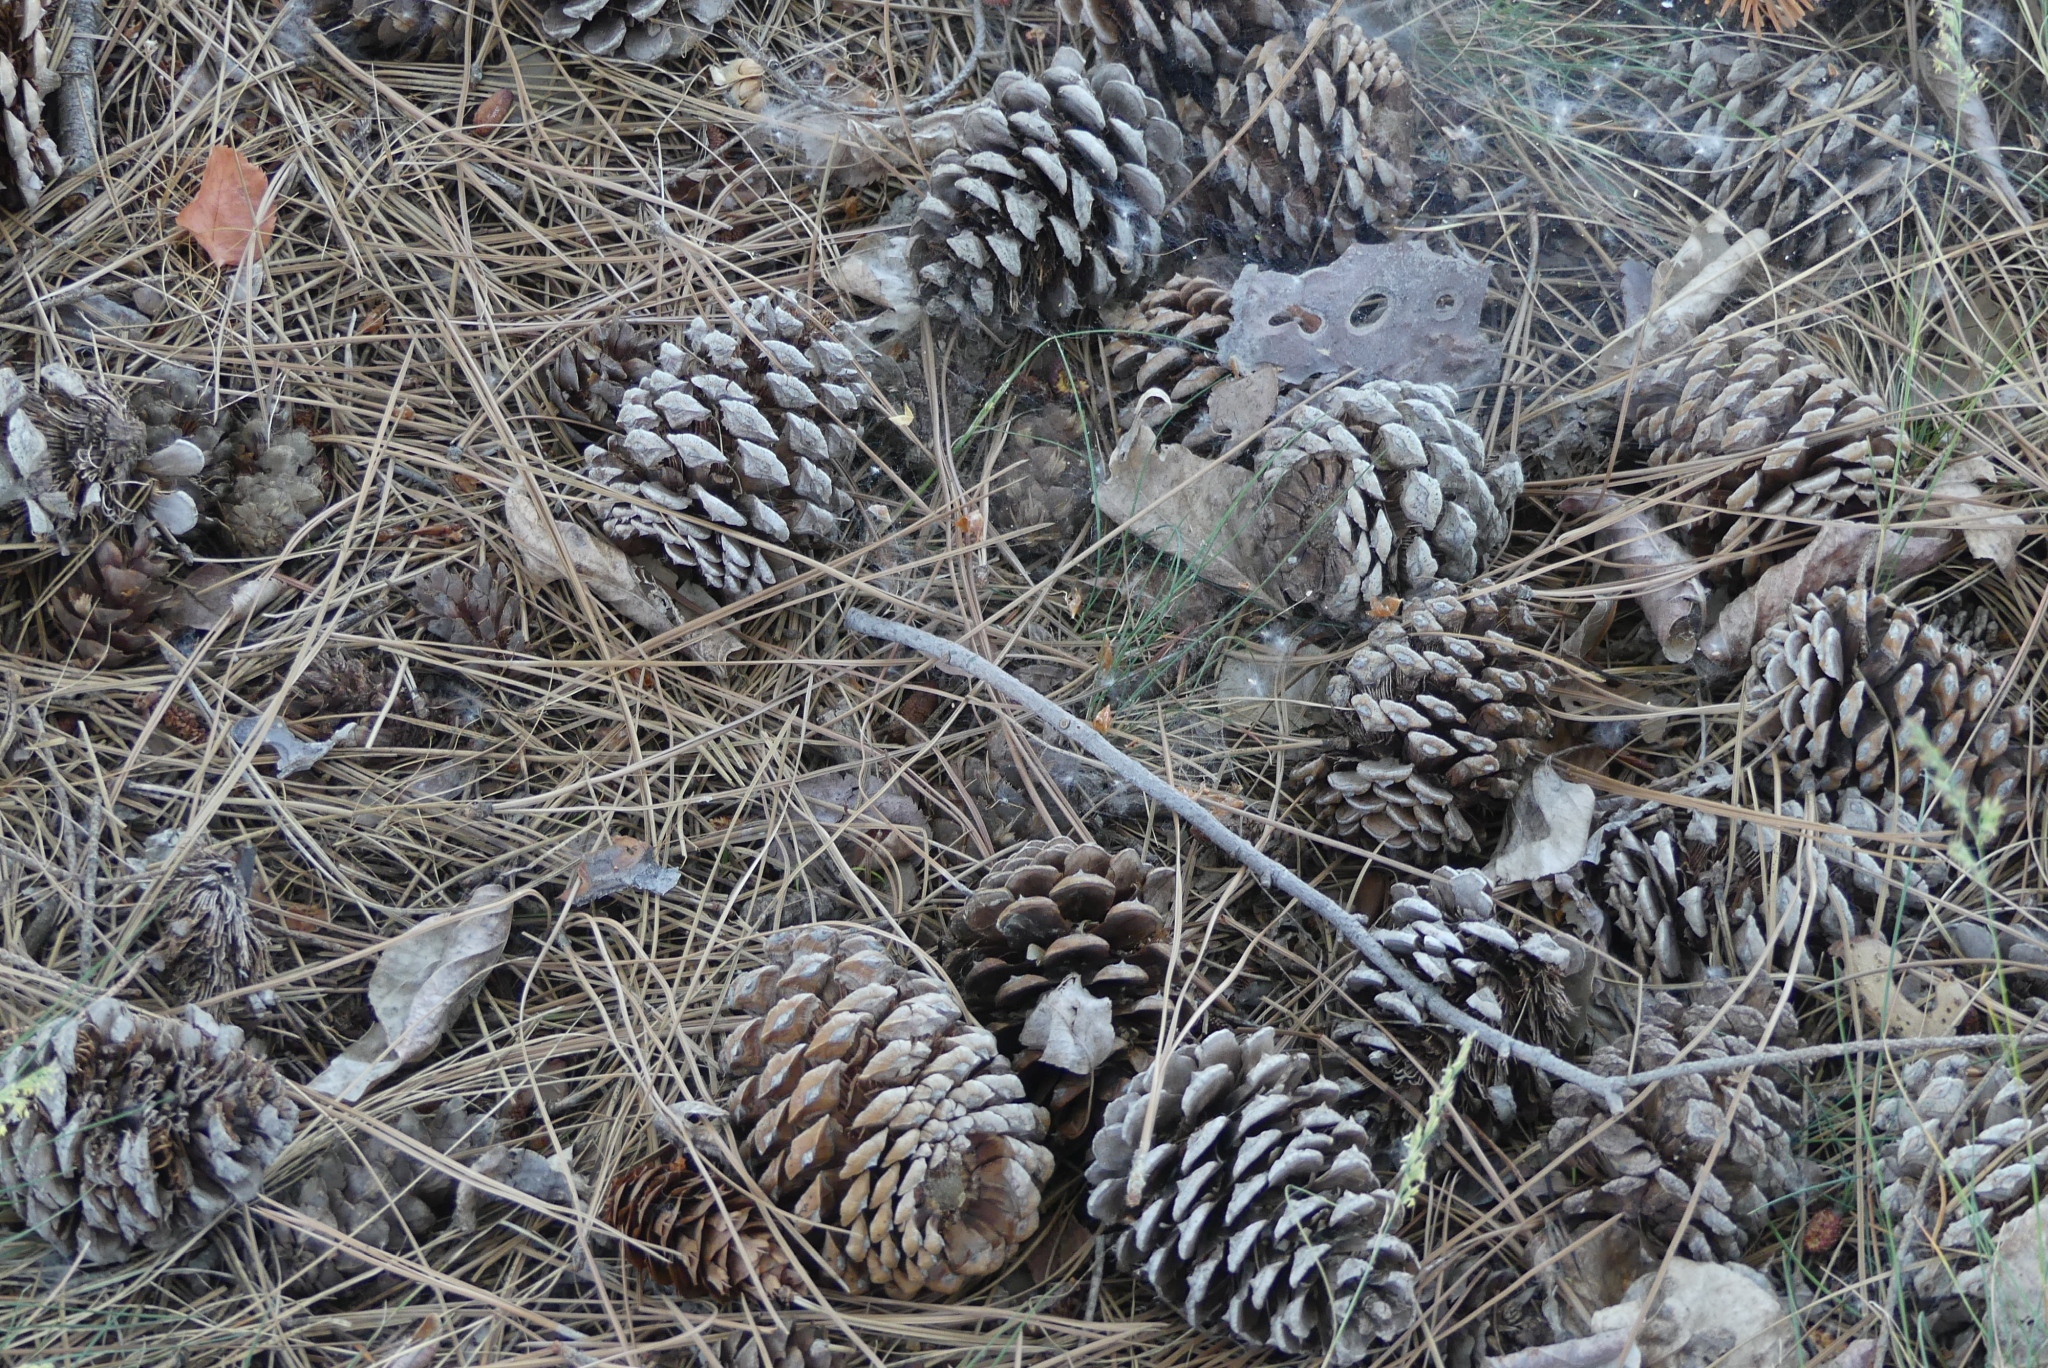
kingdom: Plantae
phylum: Tracheophyta
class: Pinopsida
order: Pinales
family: Pinaceae
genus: Pinus
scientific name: Pinus ponderosa
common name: Western yellow-pine
